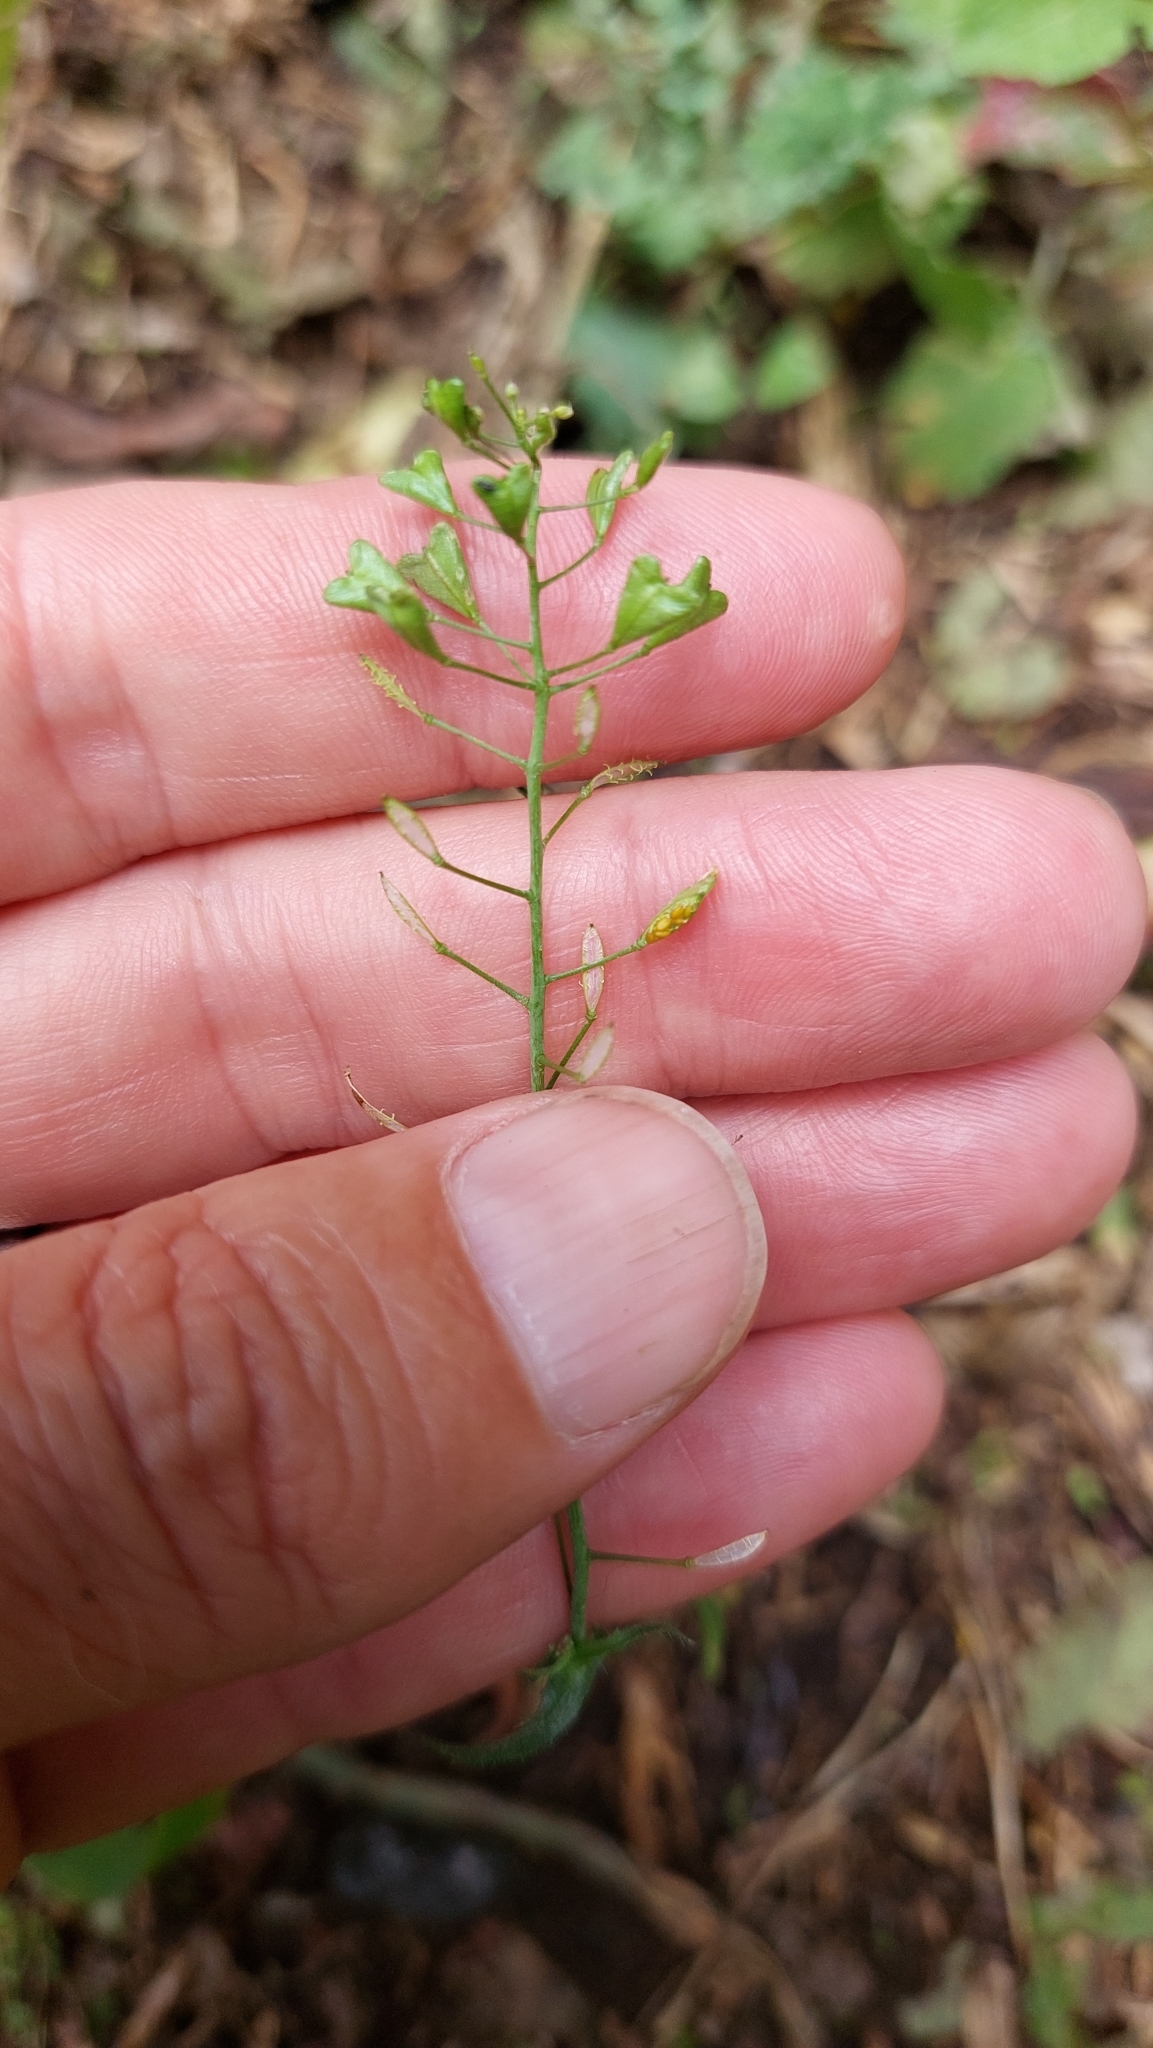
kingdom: Plantae
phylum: Tracheophyta
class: Magnoliopsida
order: Brassicales
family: Brassicaceae
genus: Capsella
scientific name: Capsella bursa-pastoris
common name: Shepherd's purse
